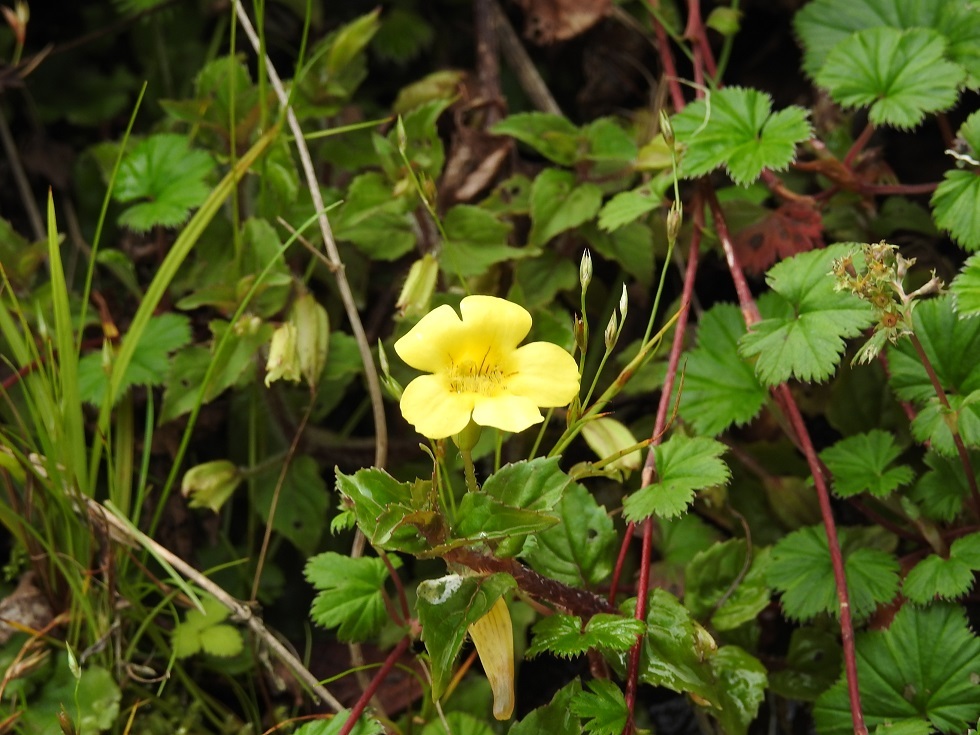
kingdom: Plantae
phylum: Tracheophyta
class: Magnoliopsida
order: Lamiales
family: Phrymaceae
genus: Erythranthe
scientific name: Erythranthe orizabae
